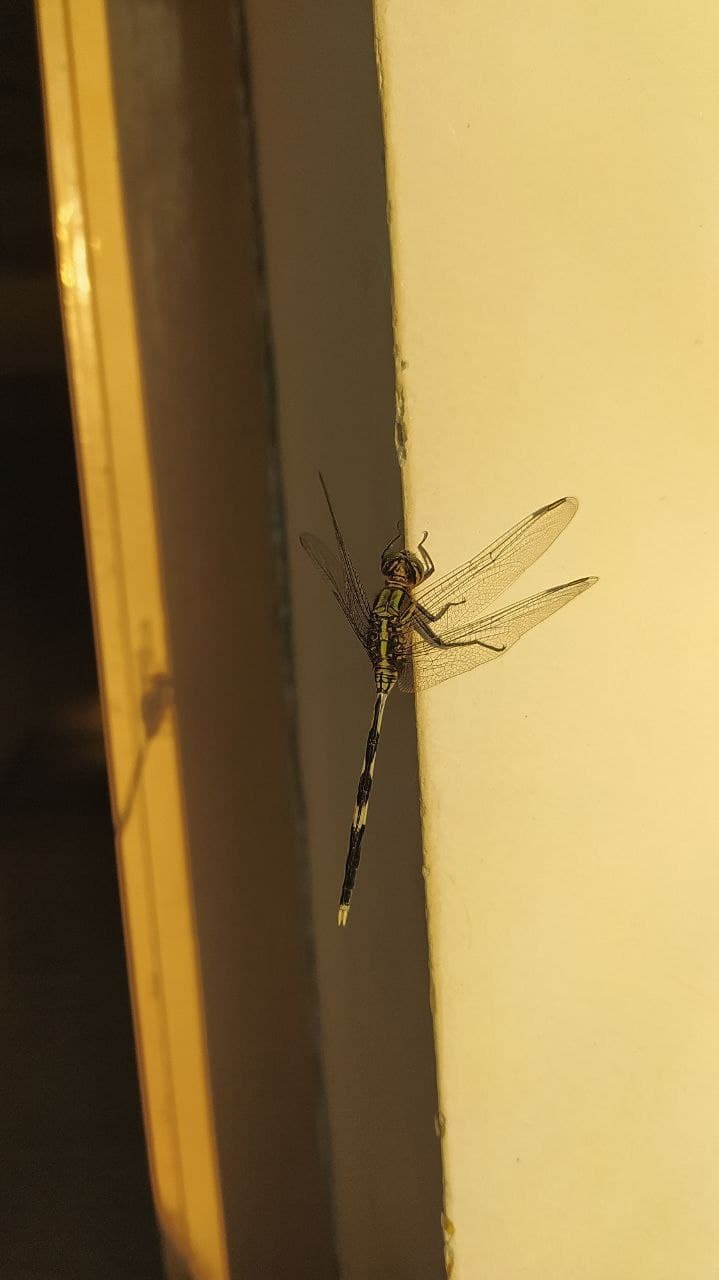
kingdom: Animalia
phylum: Arthropoda
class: Insecta
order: Odonata
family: Libellulidae
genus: Orthetrum
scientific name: Orthetrum sabina
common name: Slender skimmer
